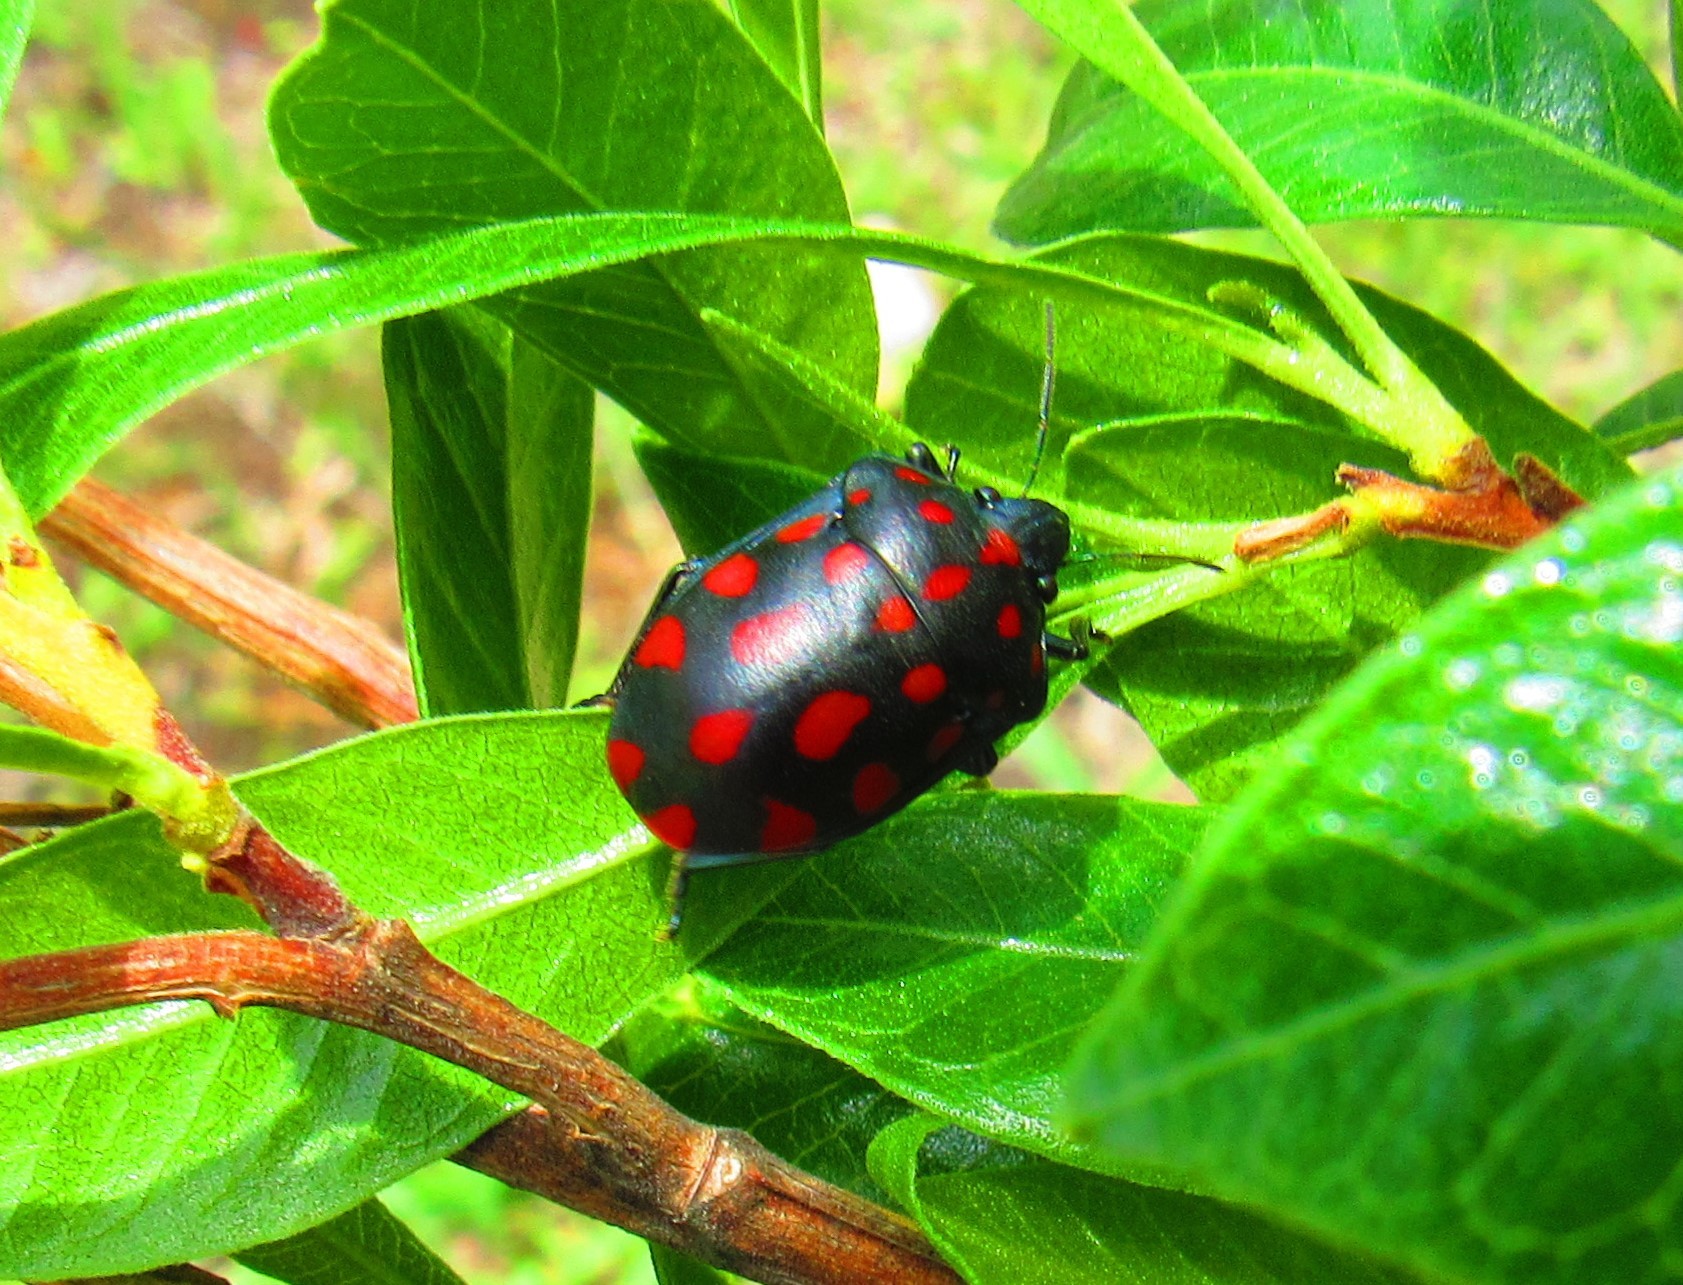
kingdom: Animalia
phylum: Arthropoda
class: Insecta
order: Hemiptera
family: Scutelleridae
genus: Pachycoris
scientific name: Pachycoris klugii
